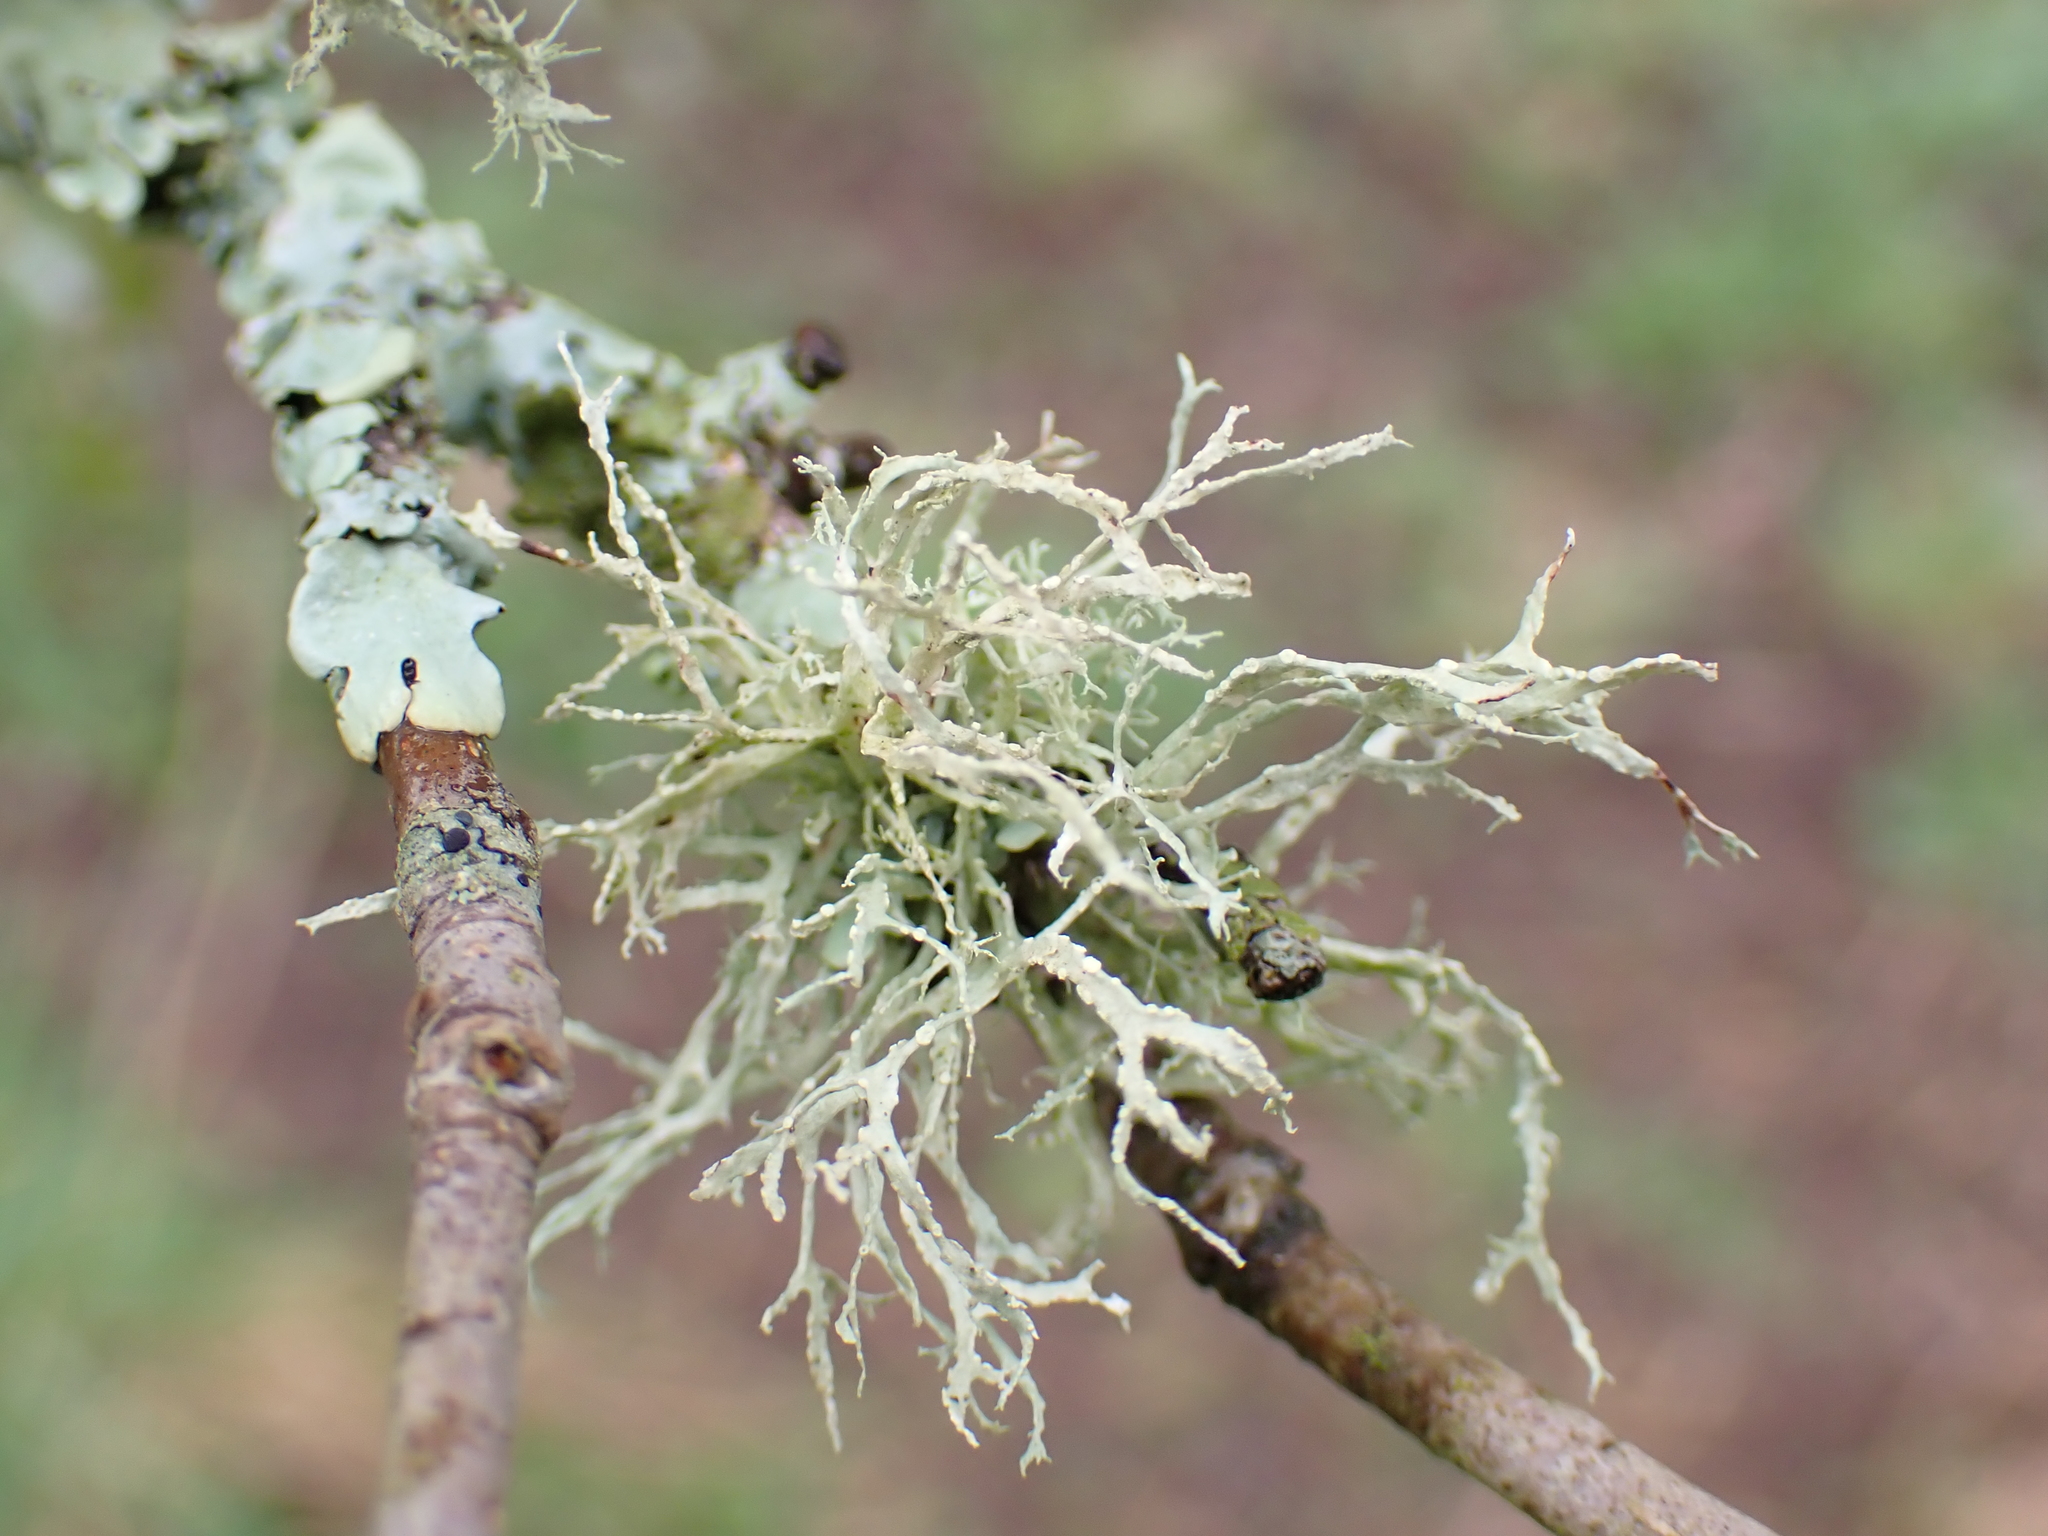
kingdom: Fungi
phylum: Ascomycota
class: Lecanoromycetes
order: Lecanorales
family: Ramalinaceae
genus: Ramalina
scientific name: Ramalina farinacea
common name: Farinose cartilage lichen
